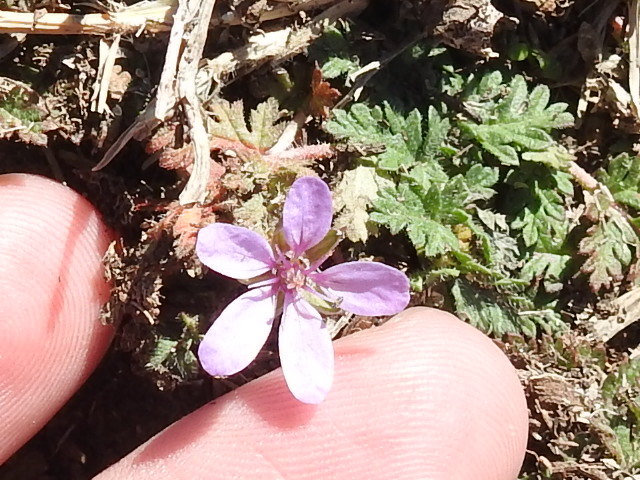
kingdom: Plantae
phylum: Tracheophyta
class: Magnoliopsida
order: Geraniales
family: Geraniaceae
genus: Erodium
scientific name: Erodium cicutarium
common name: Common stork's-bill
